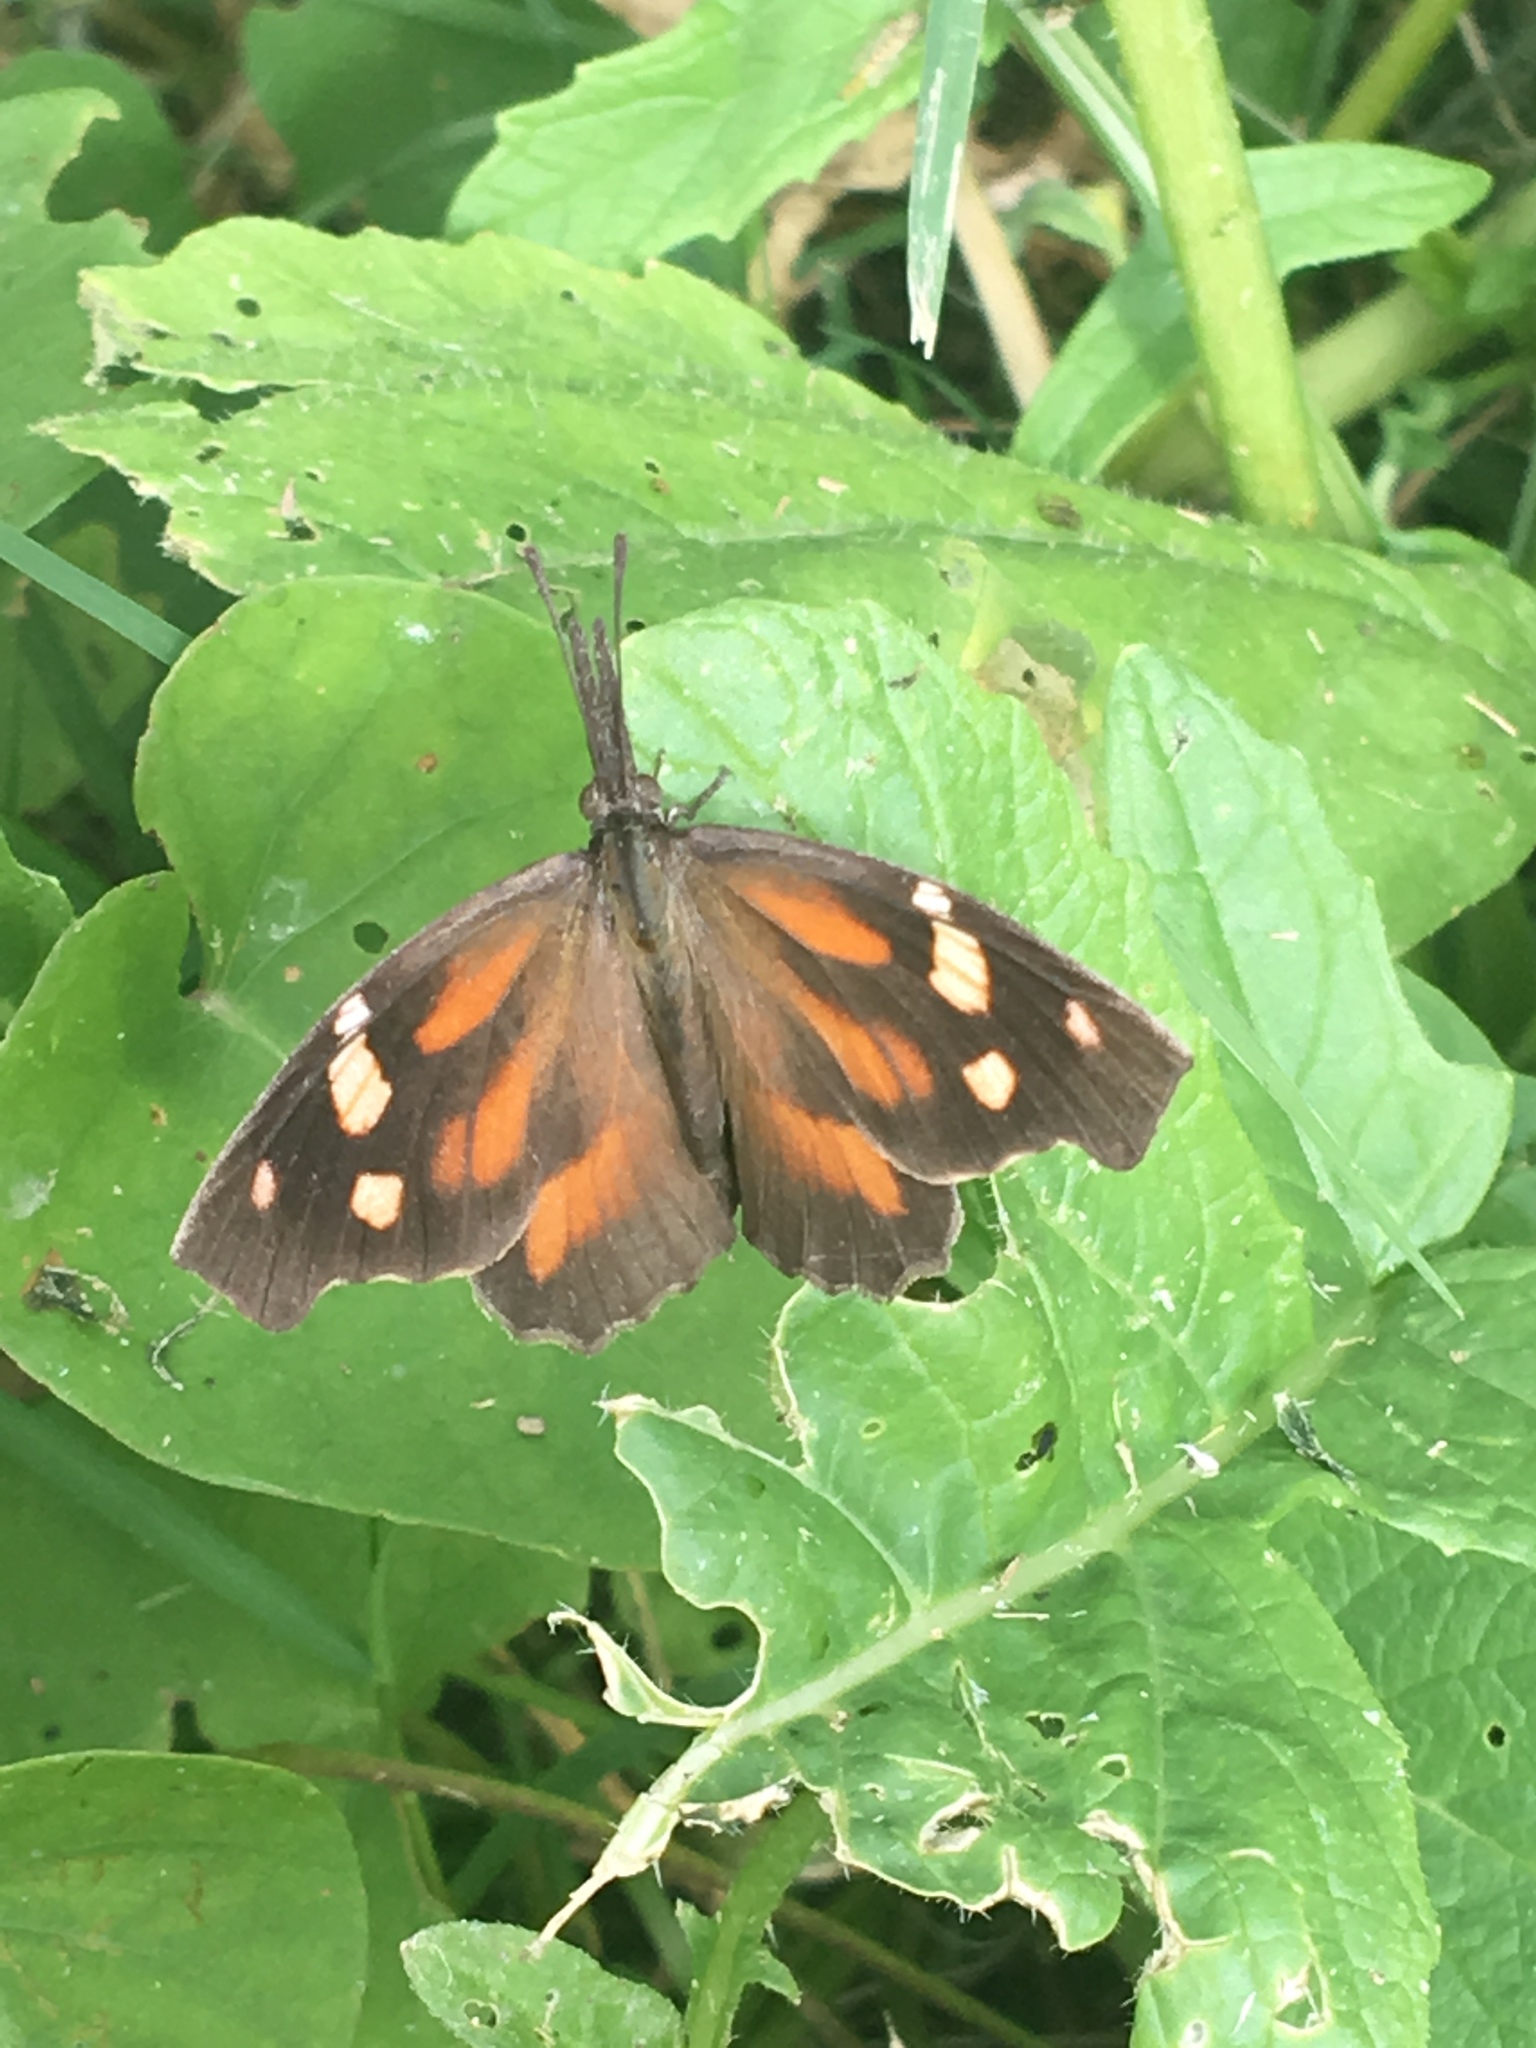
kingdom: Animalia
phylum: Arthropoda
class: Insecta
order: Lepidoptera
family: Nymphalidae
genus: Libytheana
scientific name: Libytheana carinenta
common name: American snout
